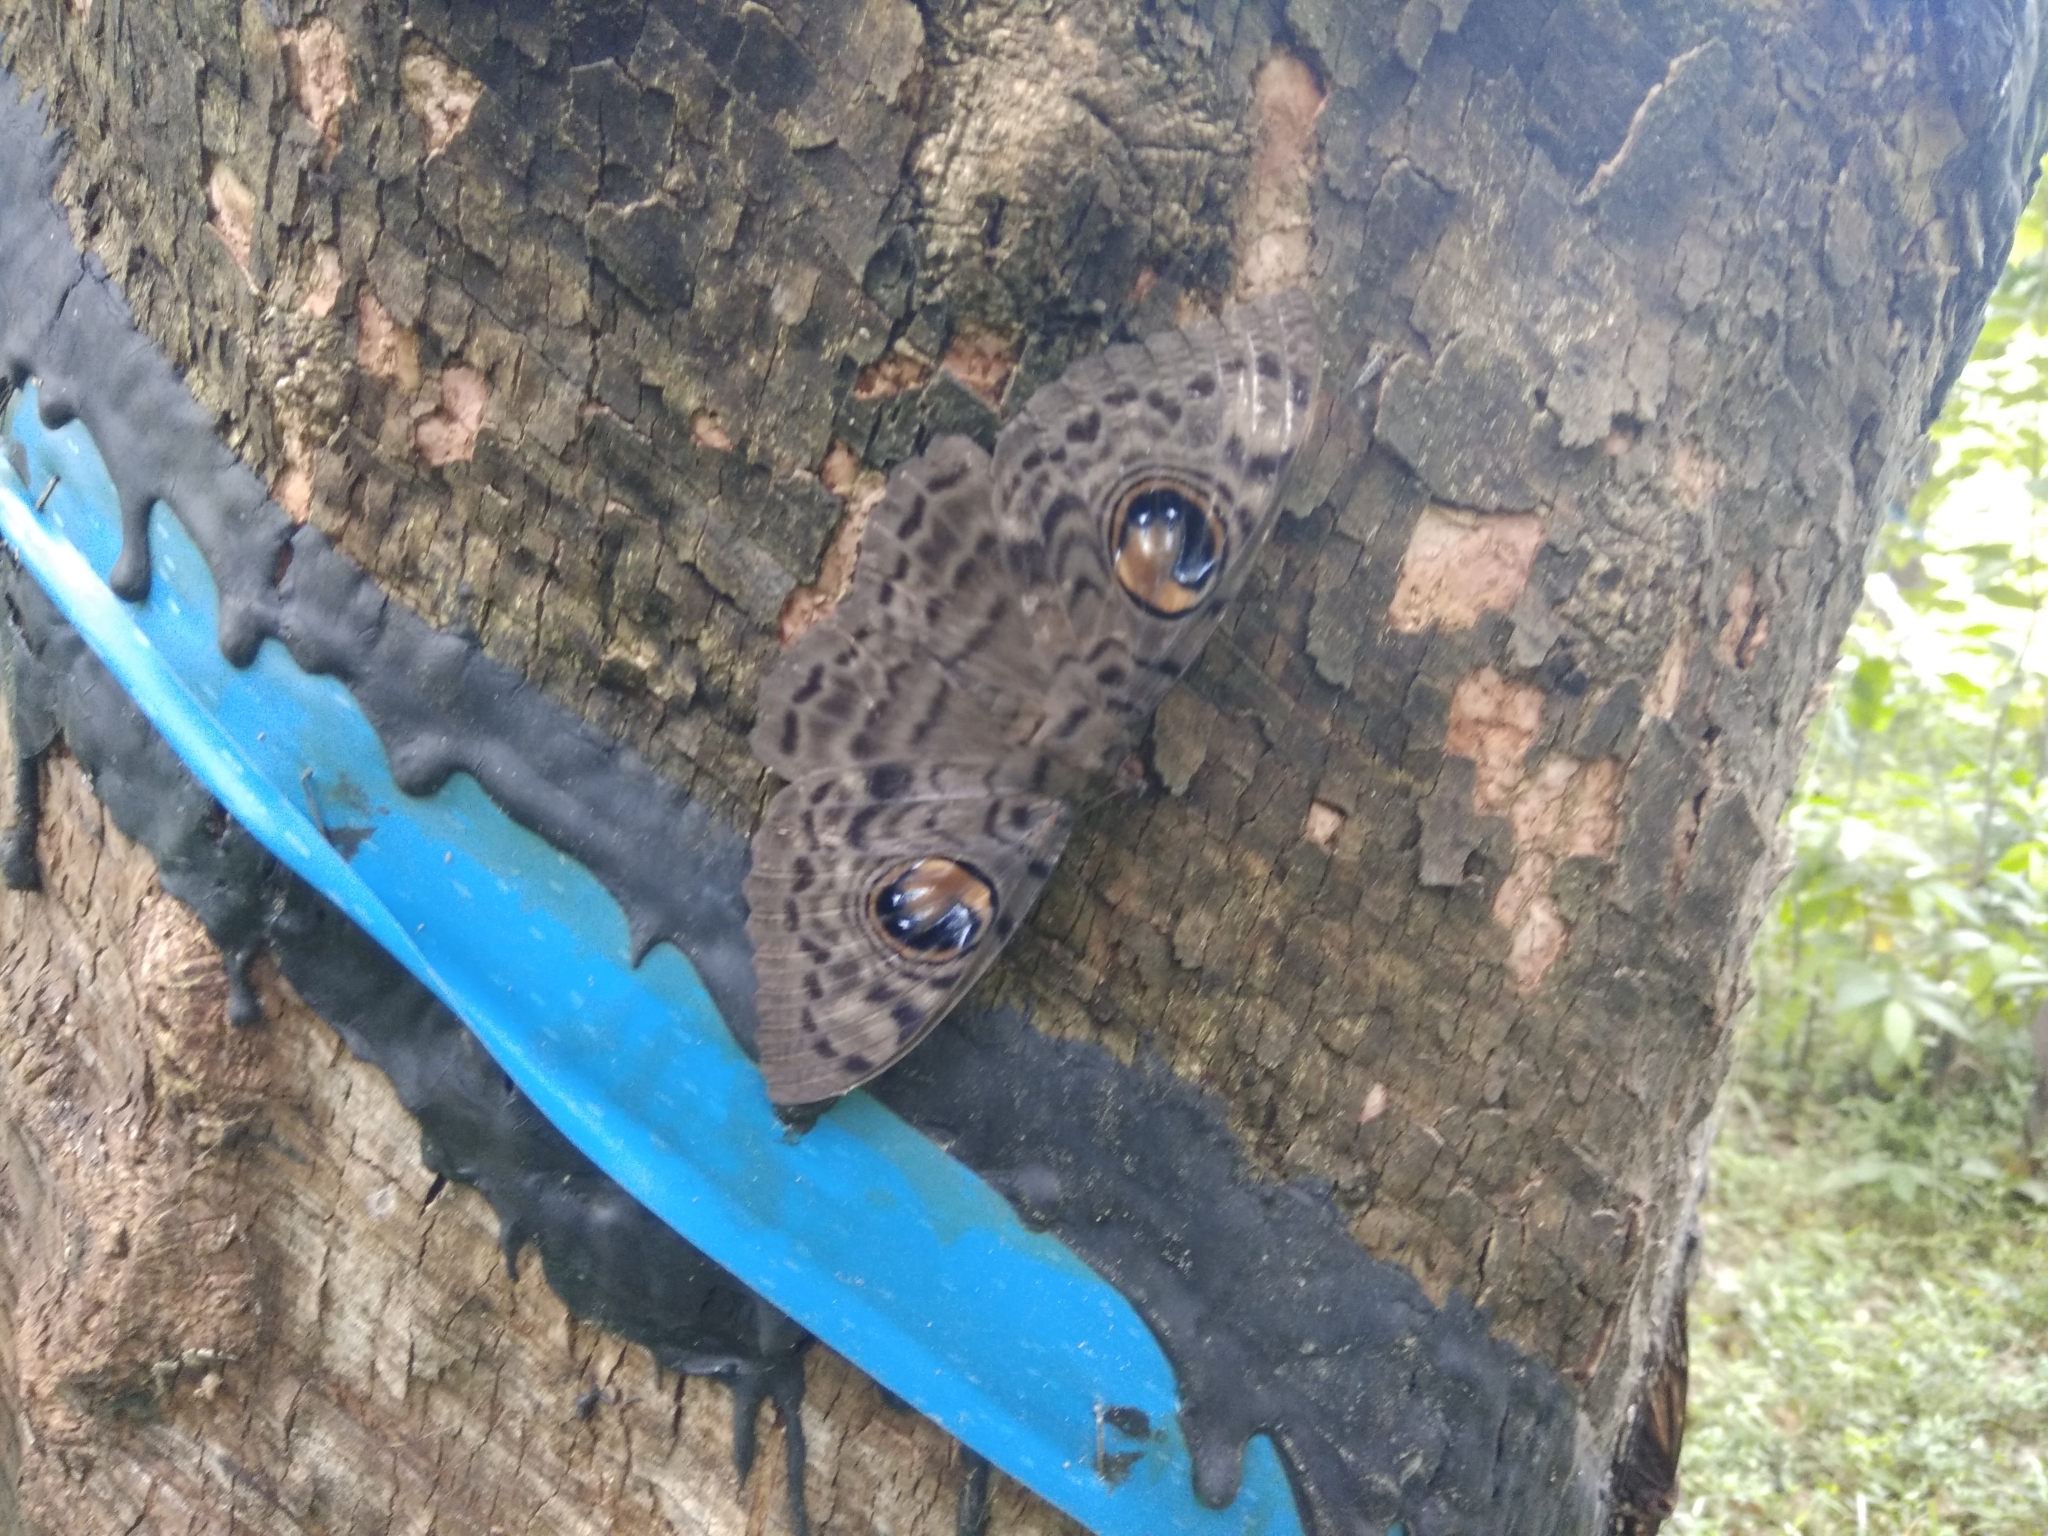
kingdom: Animalia
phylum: Arthropoda
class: Insecta
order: Lepidoptera
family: Erebidae
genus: Erebus
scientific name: Erebus macrops
